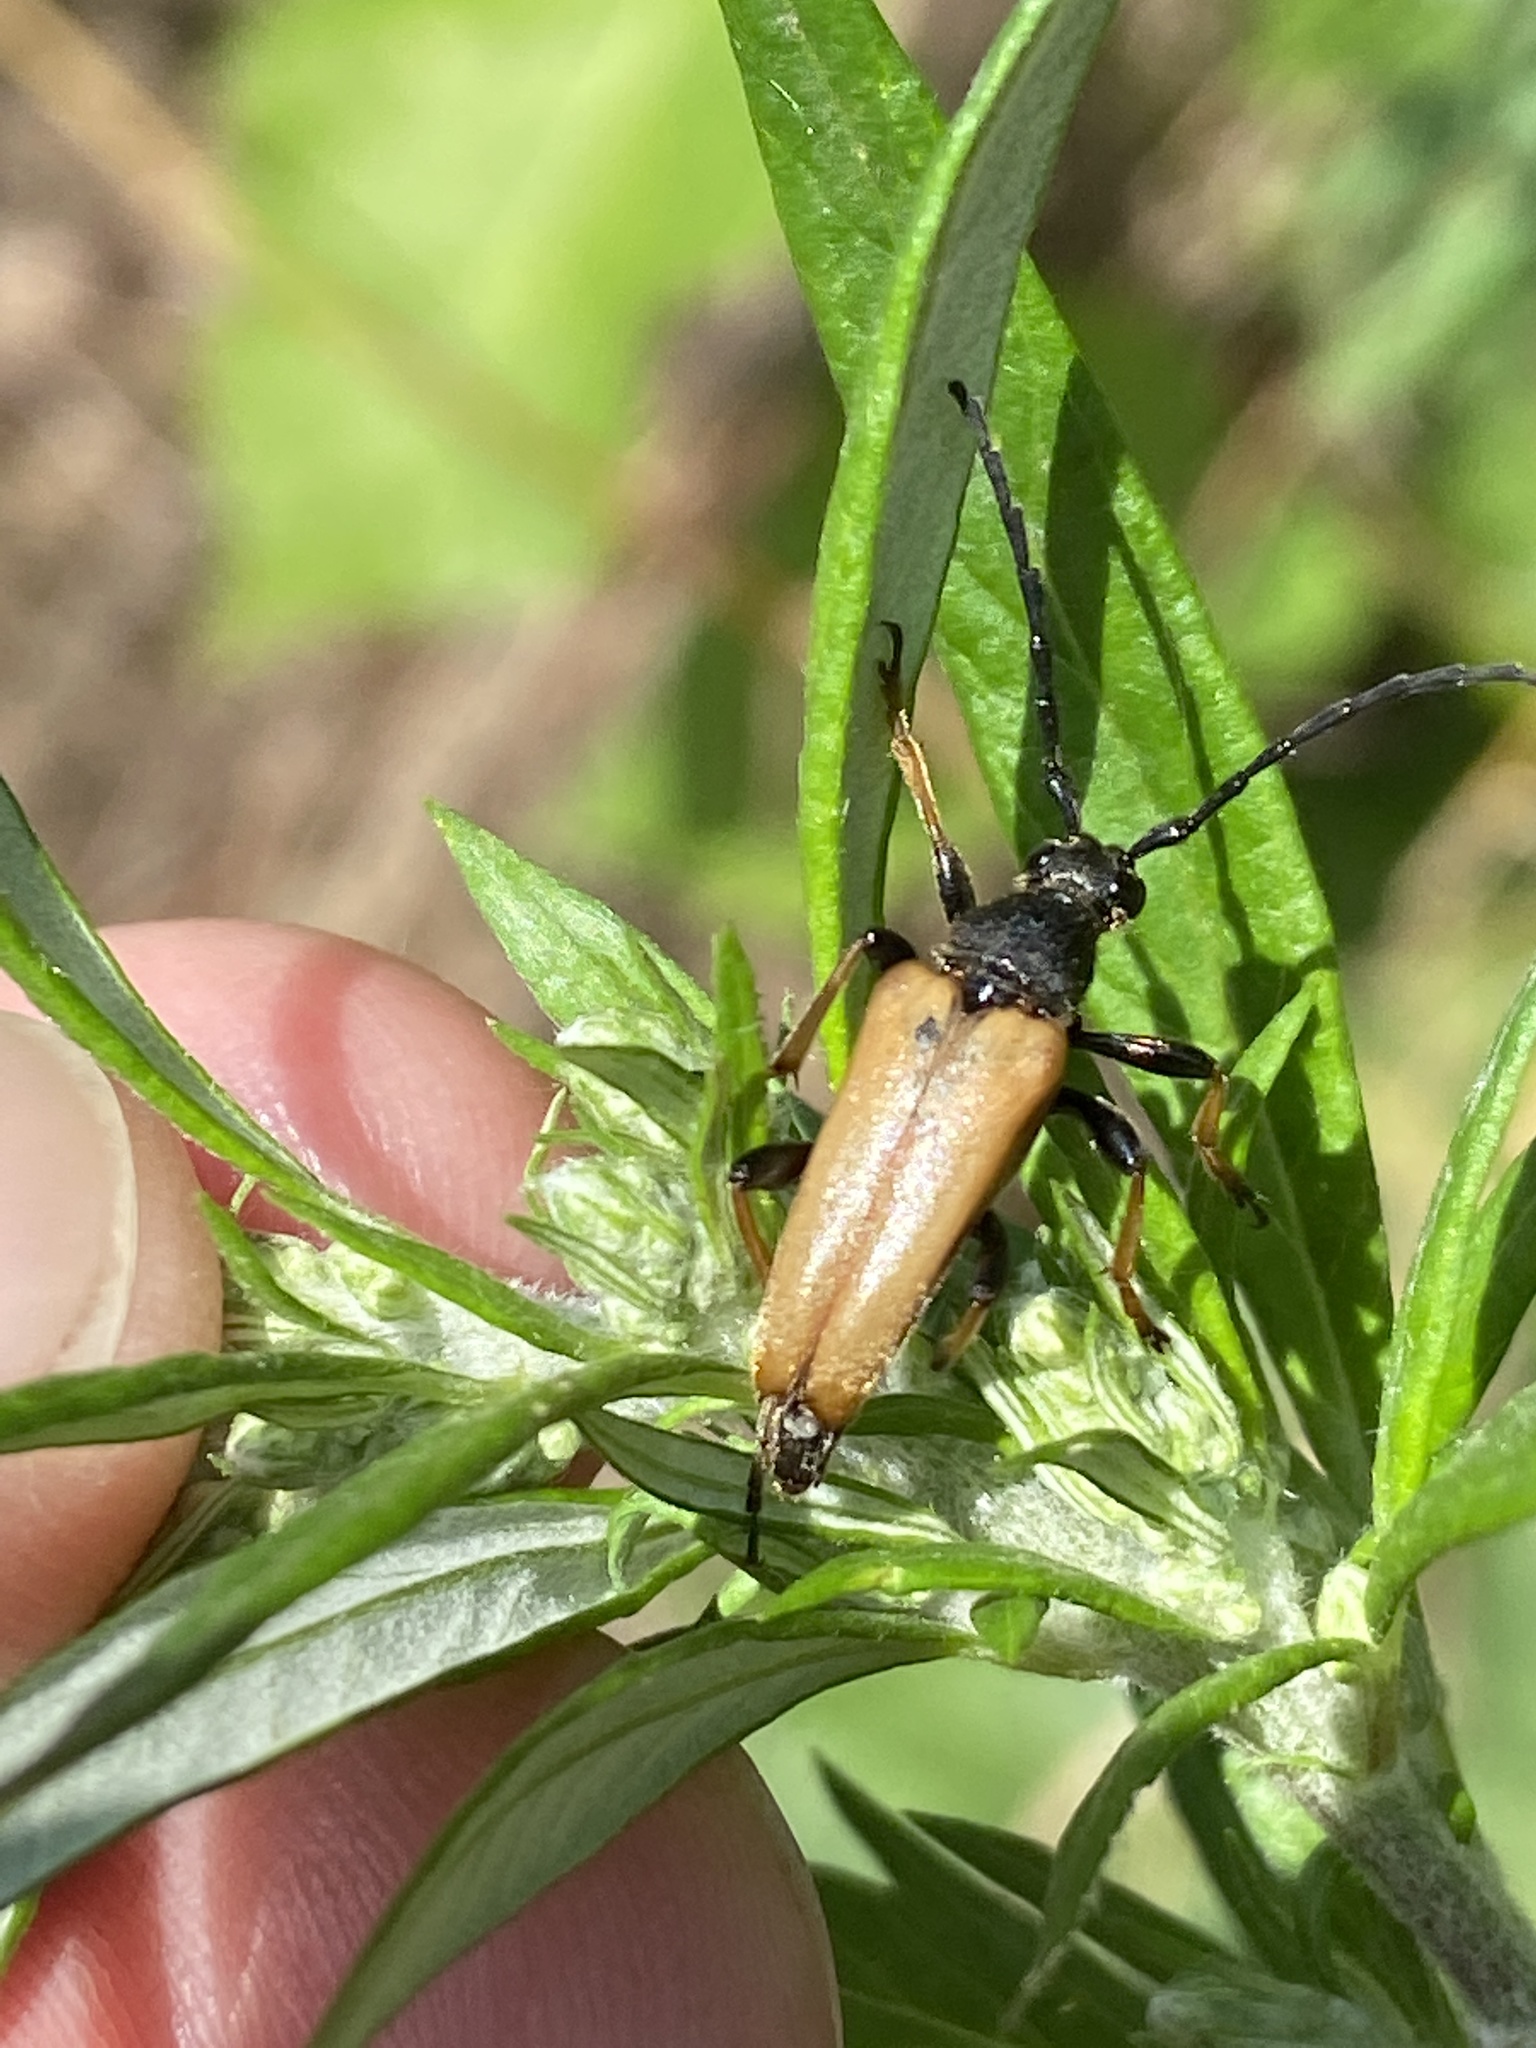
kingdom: Animalia
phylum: Arthropoda
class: Insecta
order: Coleoptera
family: Cerambycidae
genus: Stictoleptura
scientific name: Stictoleptura rubra
